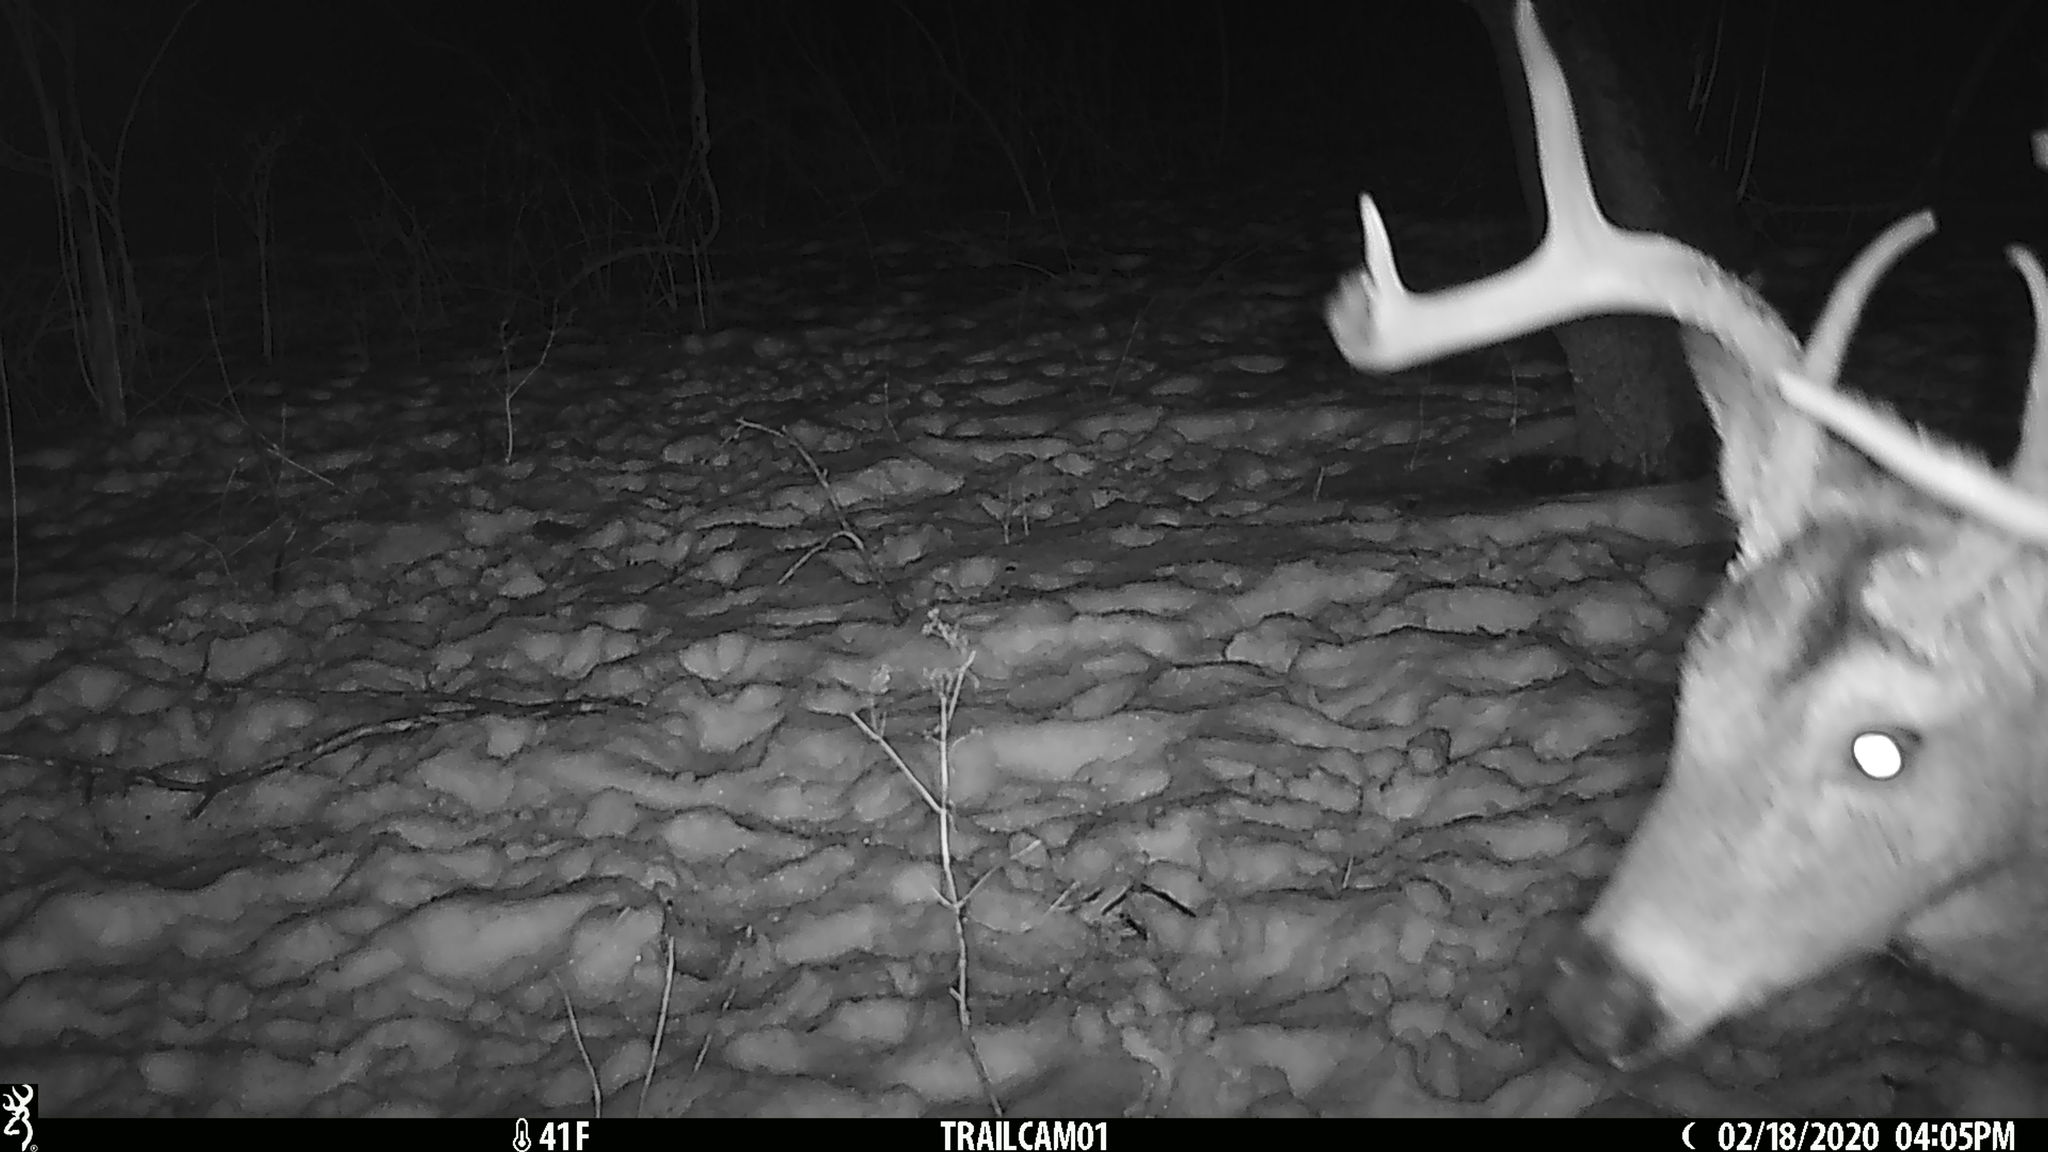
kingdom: Animalia
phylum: Chordata
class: Mammalia
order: Artiodactyla
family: Cervidae
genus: Odocoileus
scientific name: Odocoileus virginianus
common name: White-tailed deer
